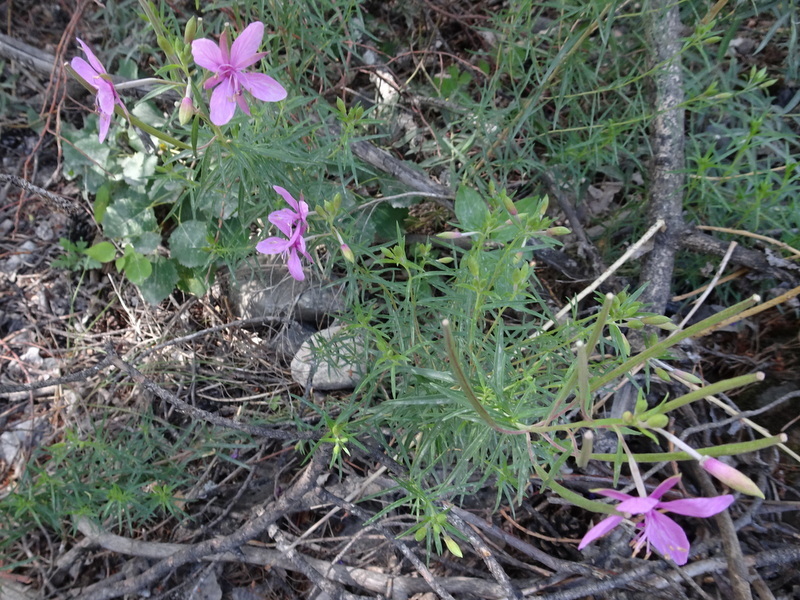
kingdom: Plantae
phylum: Tracheophyta
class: Magnoliopsida
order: Myrtales
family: Onagraceae
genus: Chamaenerion
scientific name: Chamaenerion dodonaei
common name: Rosemary-leaved willowherb
